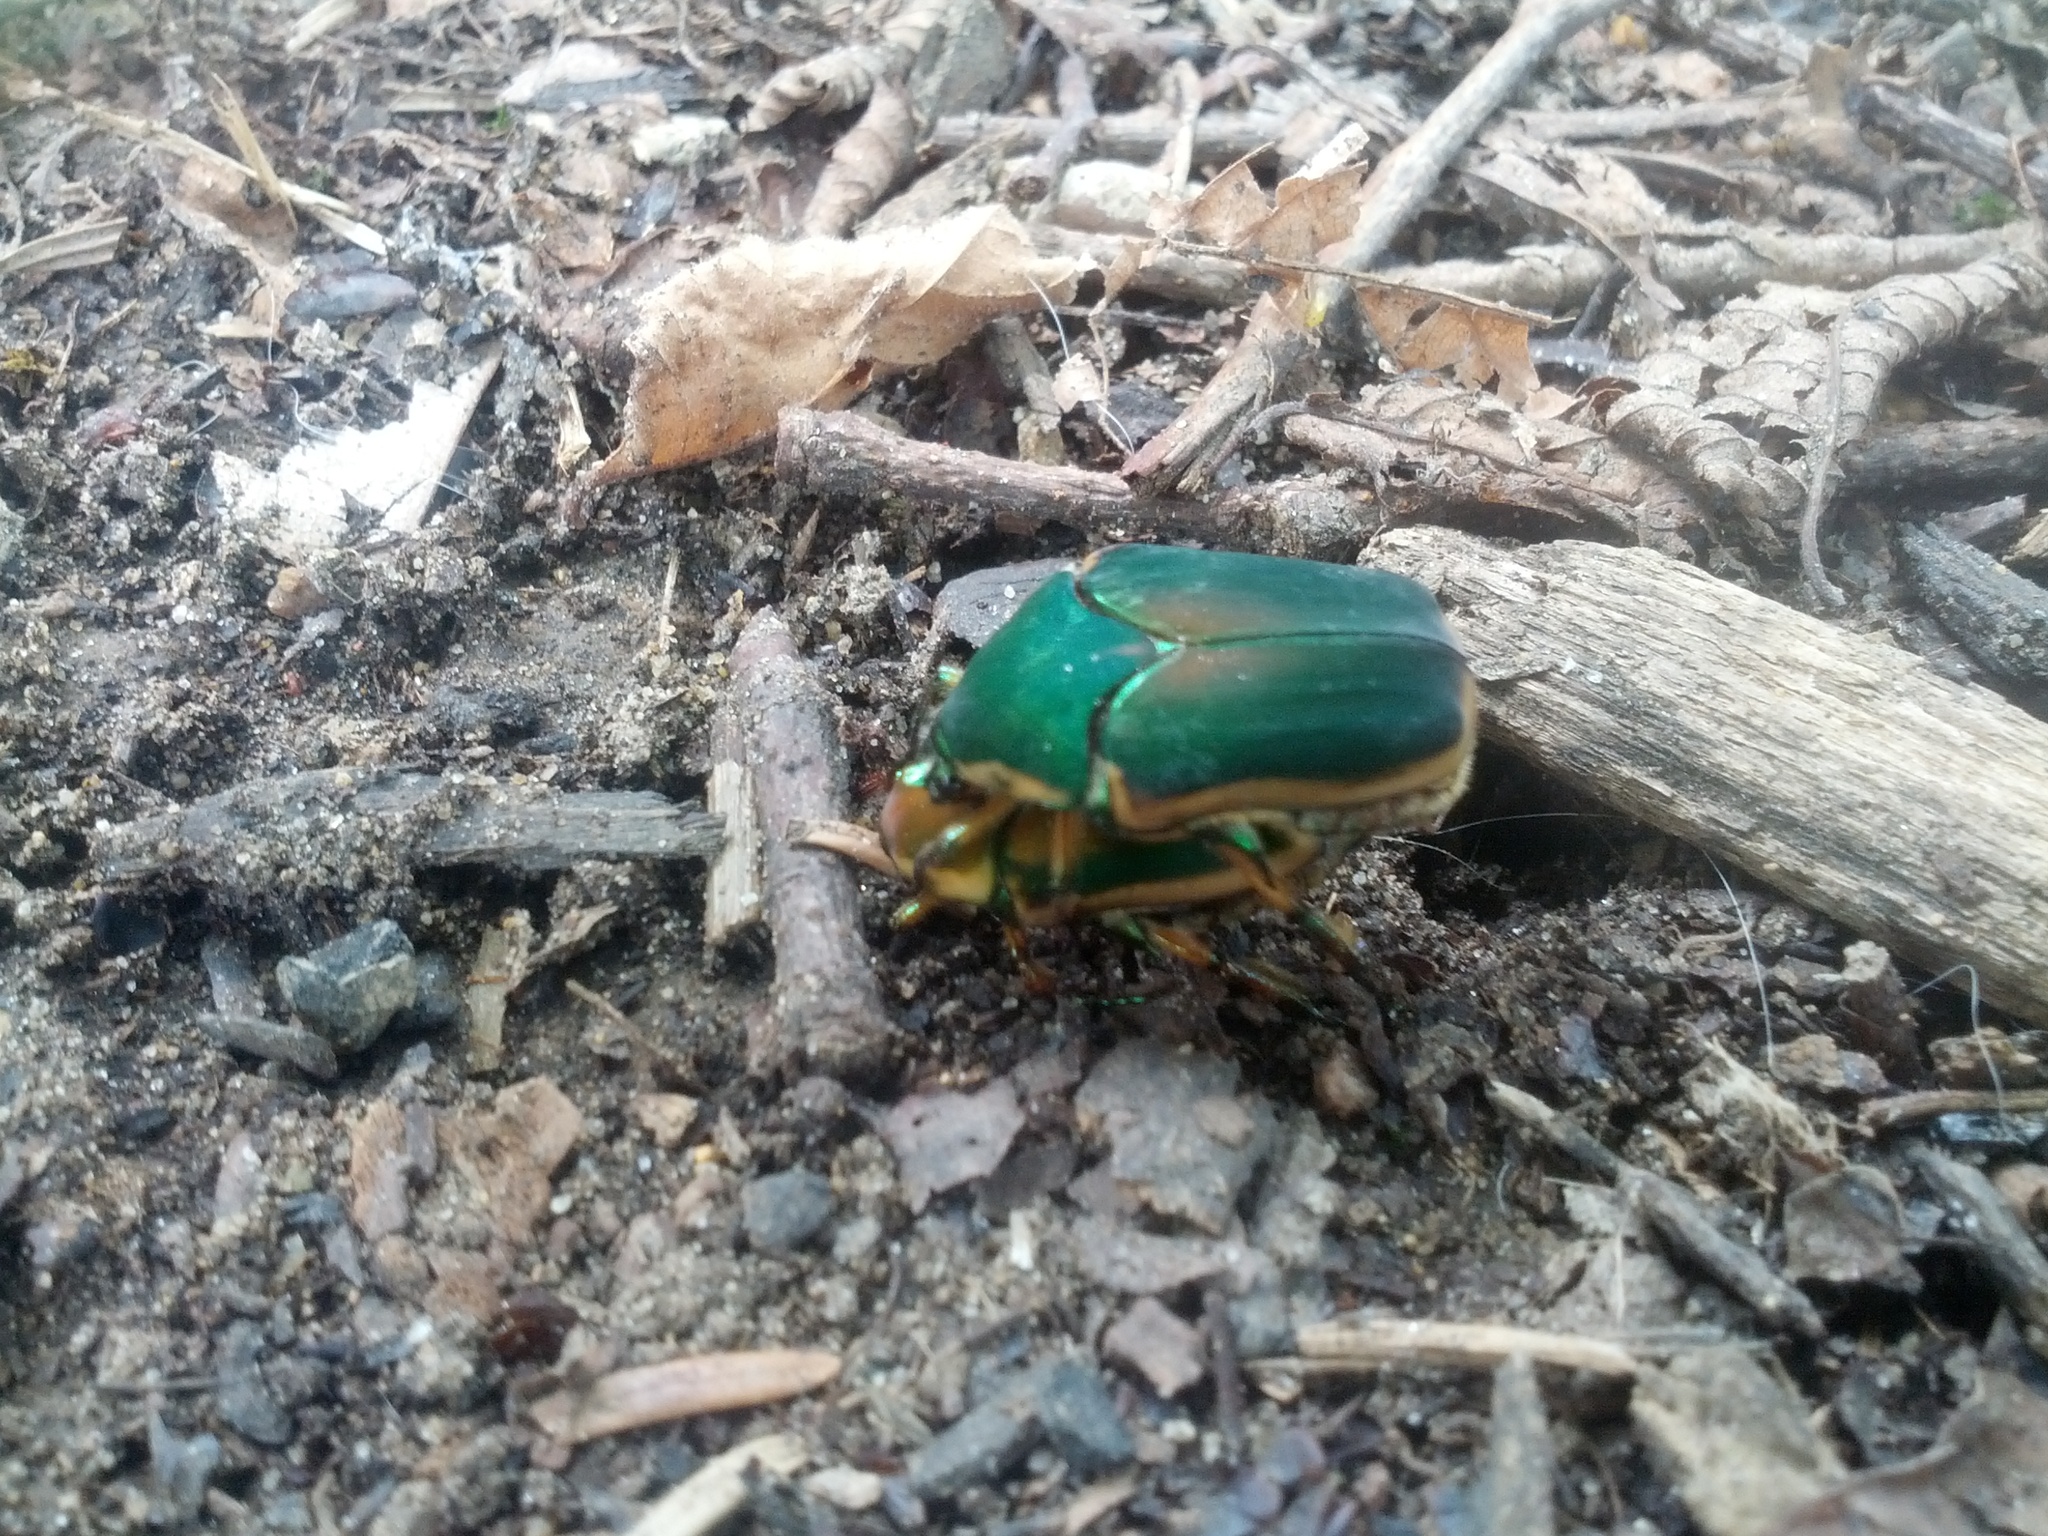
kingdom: Animalia
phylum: Arthropoda
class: Insecta
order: Coleoptera
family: Scarabaeidae
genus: Cotinis
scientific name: Cotinis nitida
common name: Common green june beetle
